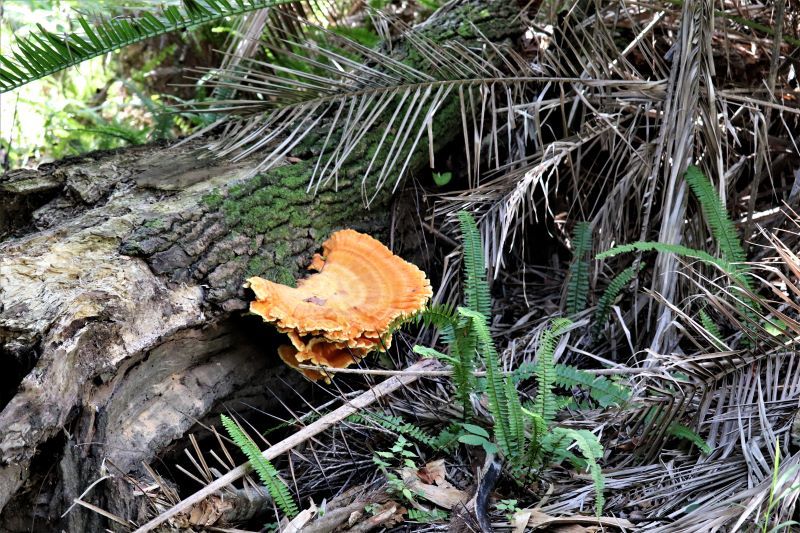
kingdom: Fungi
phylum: Basidiomycota
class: Agaricomycetes
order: Polyporales
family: Laetiporaceae
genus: Laetiporus
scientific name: Laetiporus sulphureus
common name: Chicken of the woods
